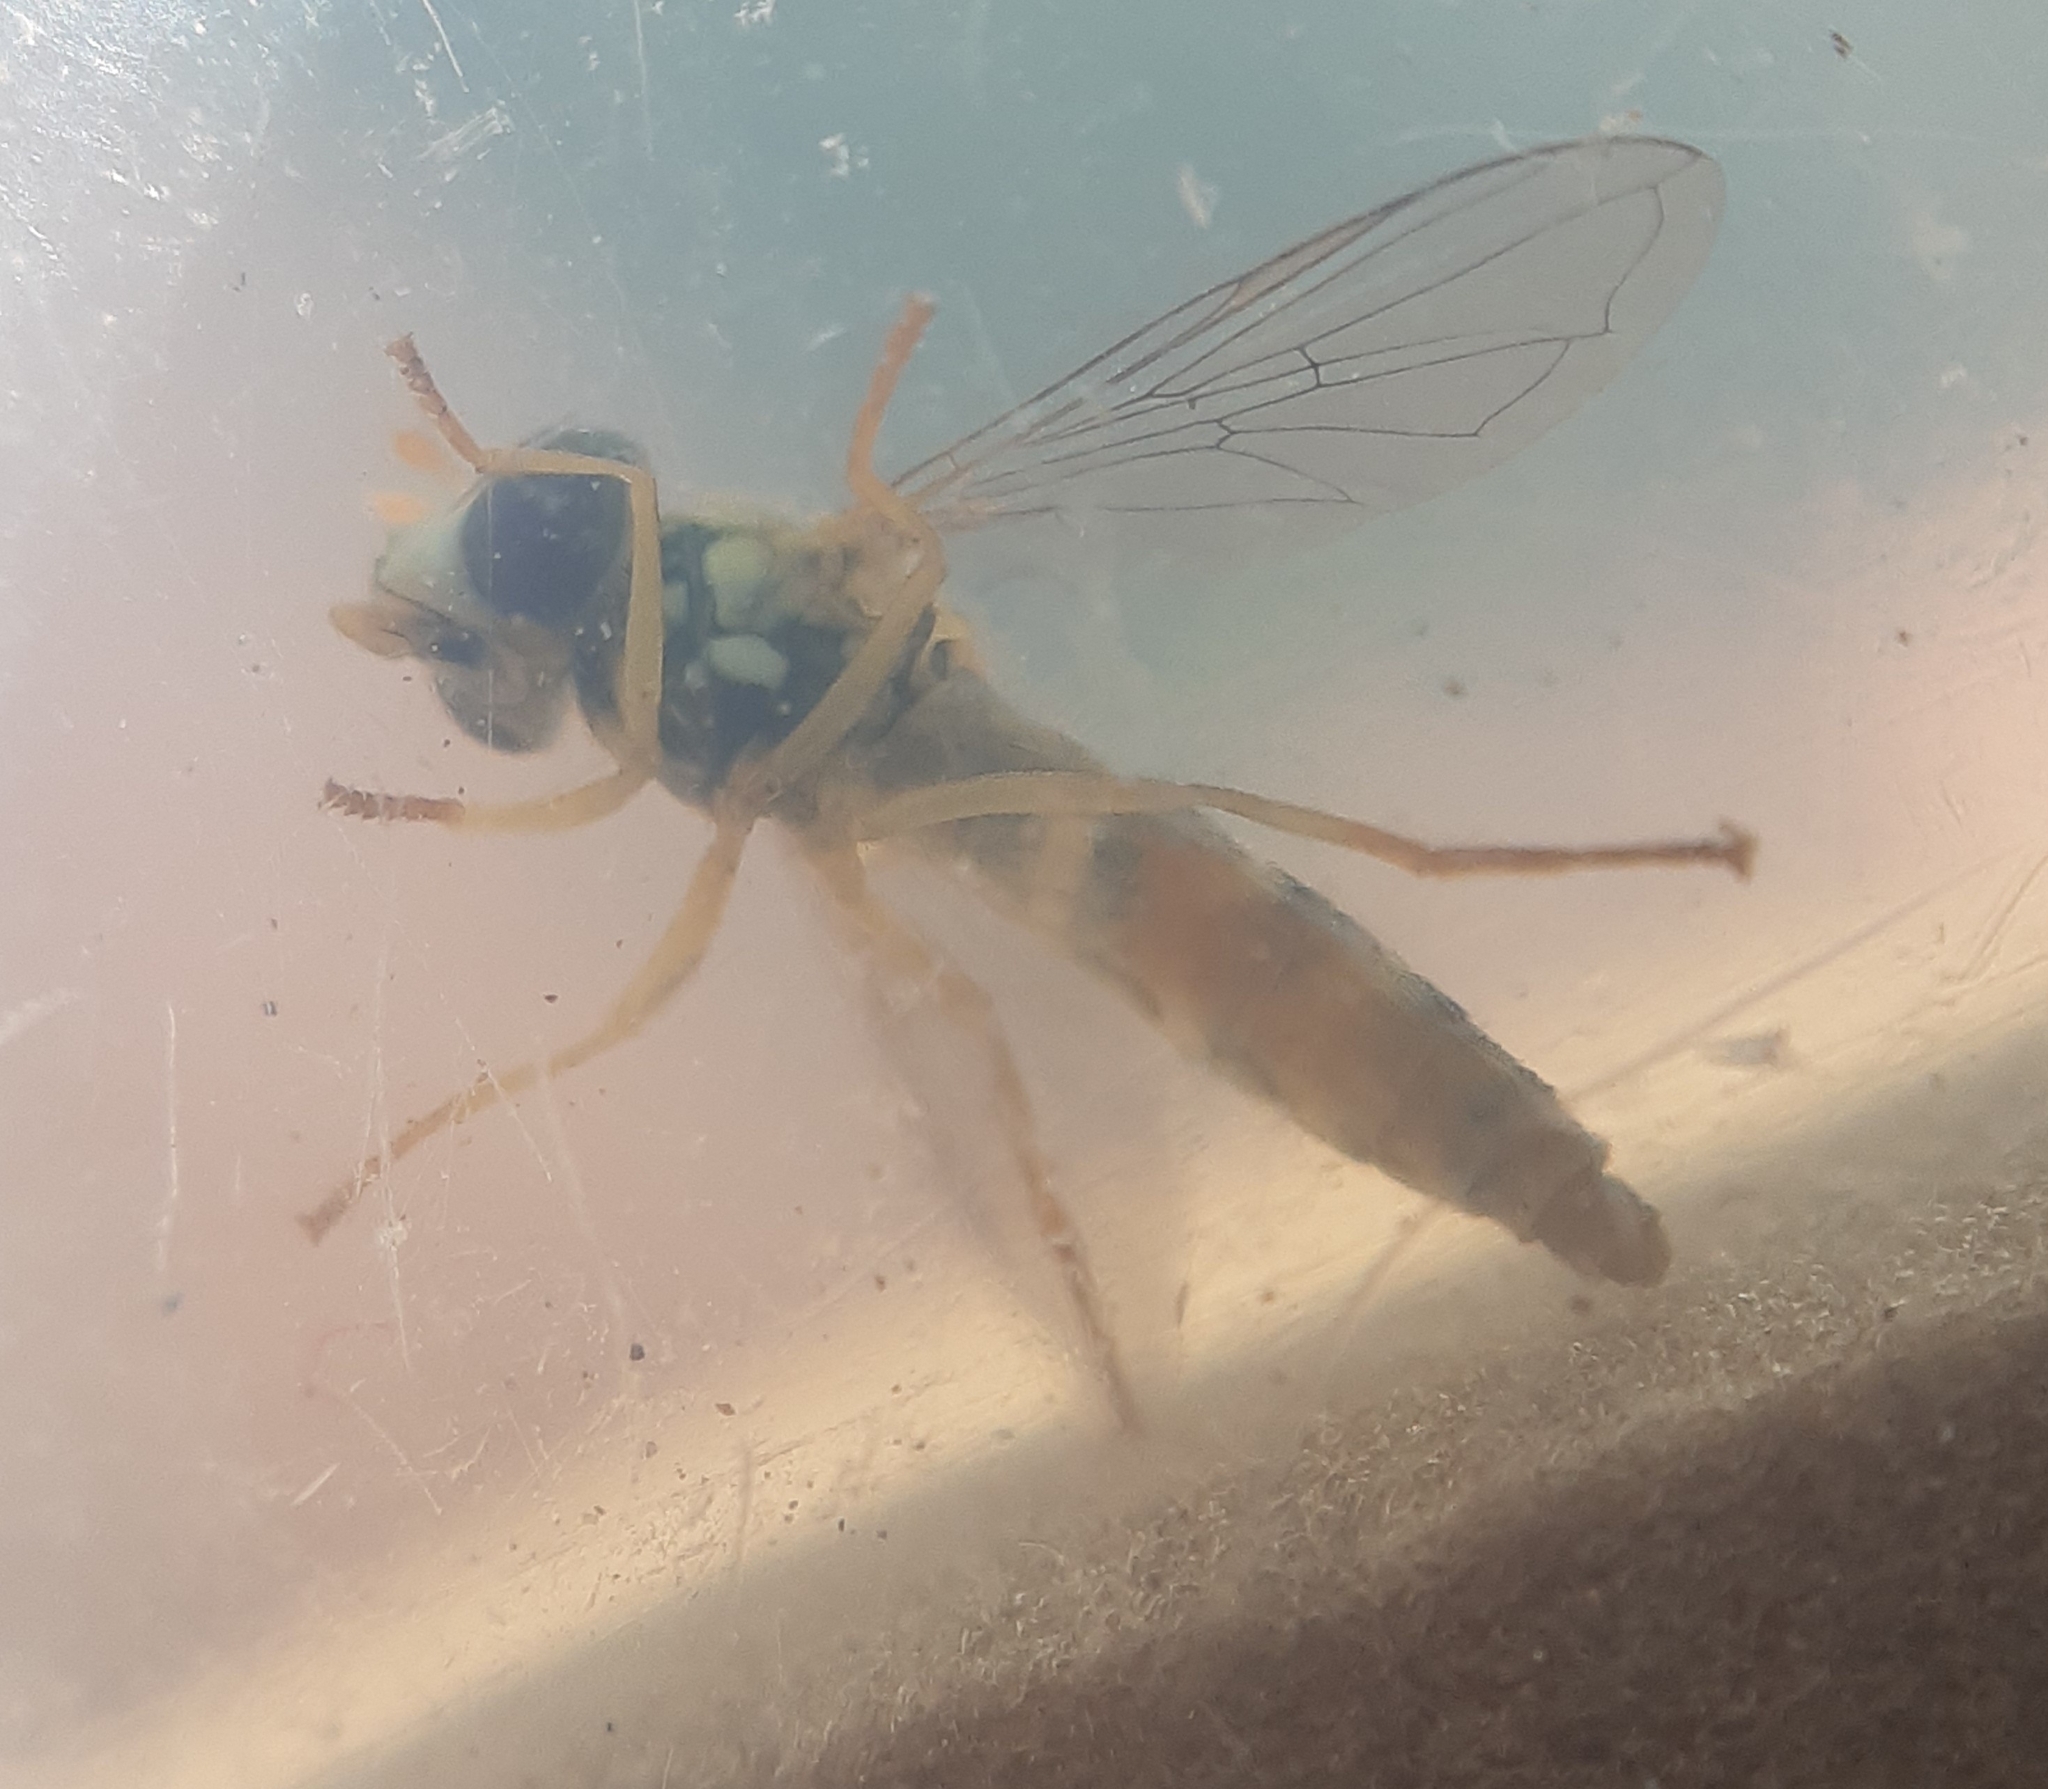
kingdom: Animalia
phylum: Arthropoda
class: Insecta
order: Diptera
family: Syrphidae
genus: Sphaerophoria
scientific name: Sphaerophoria
